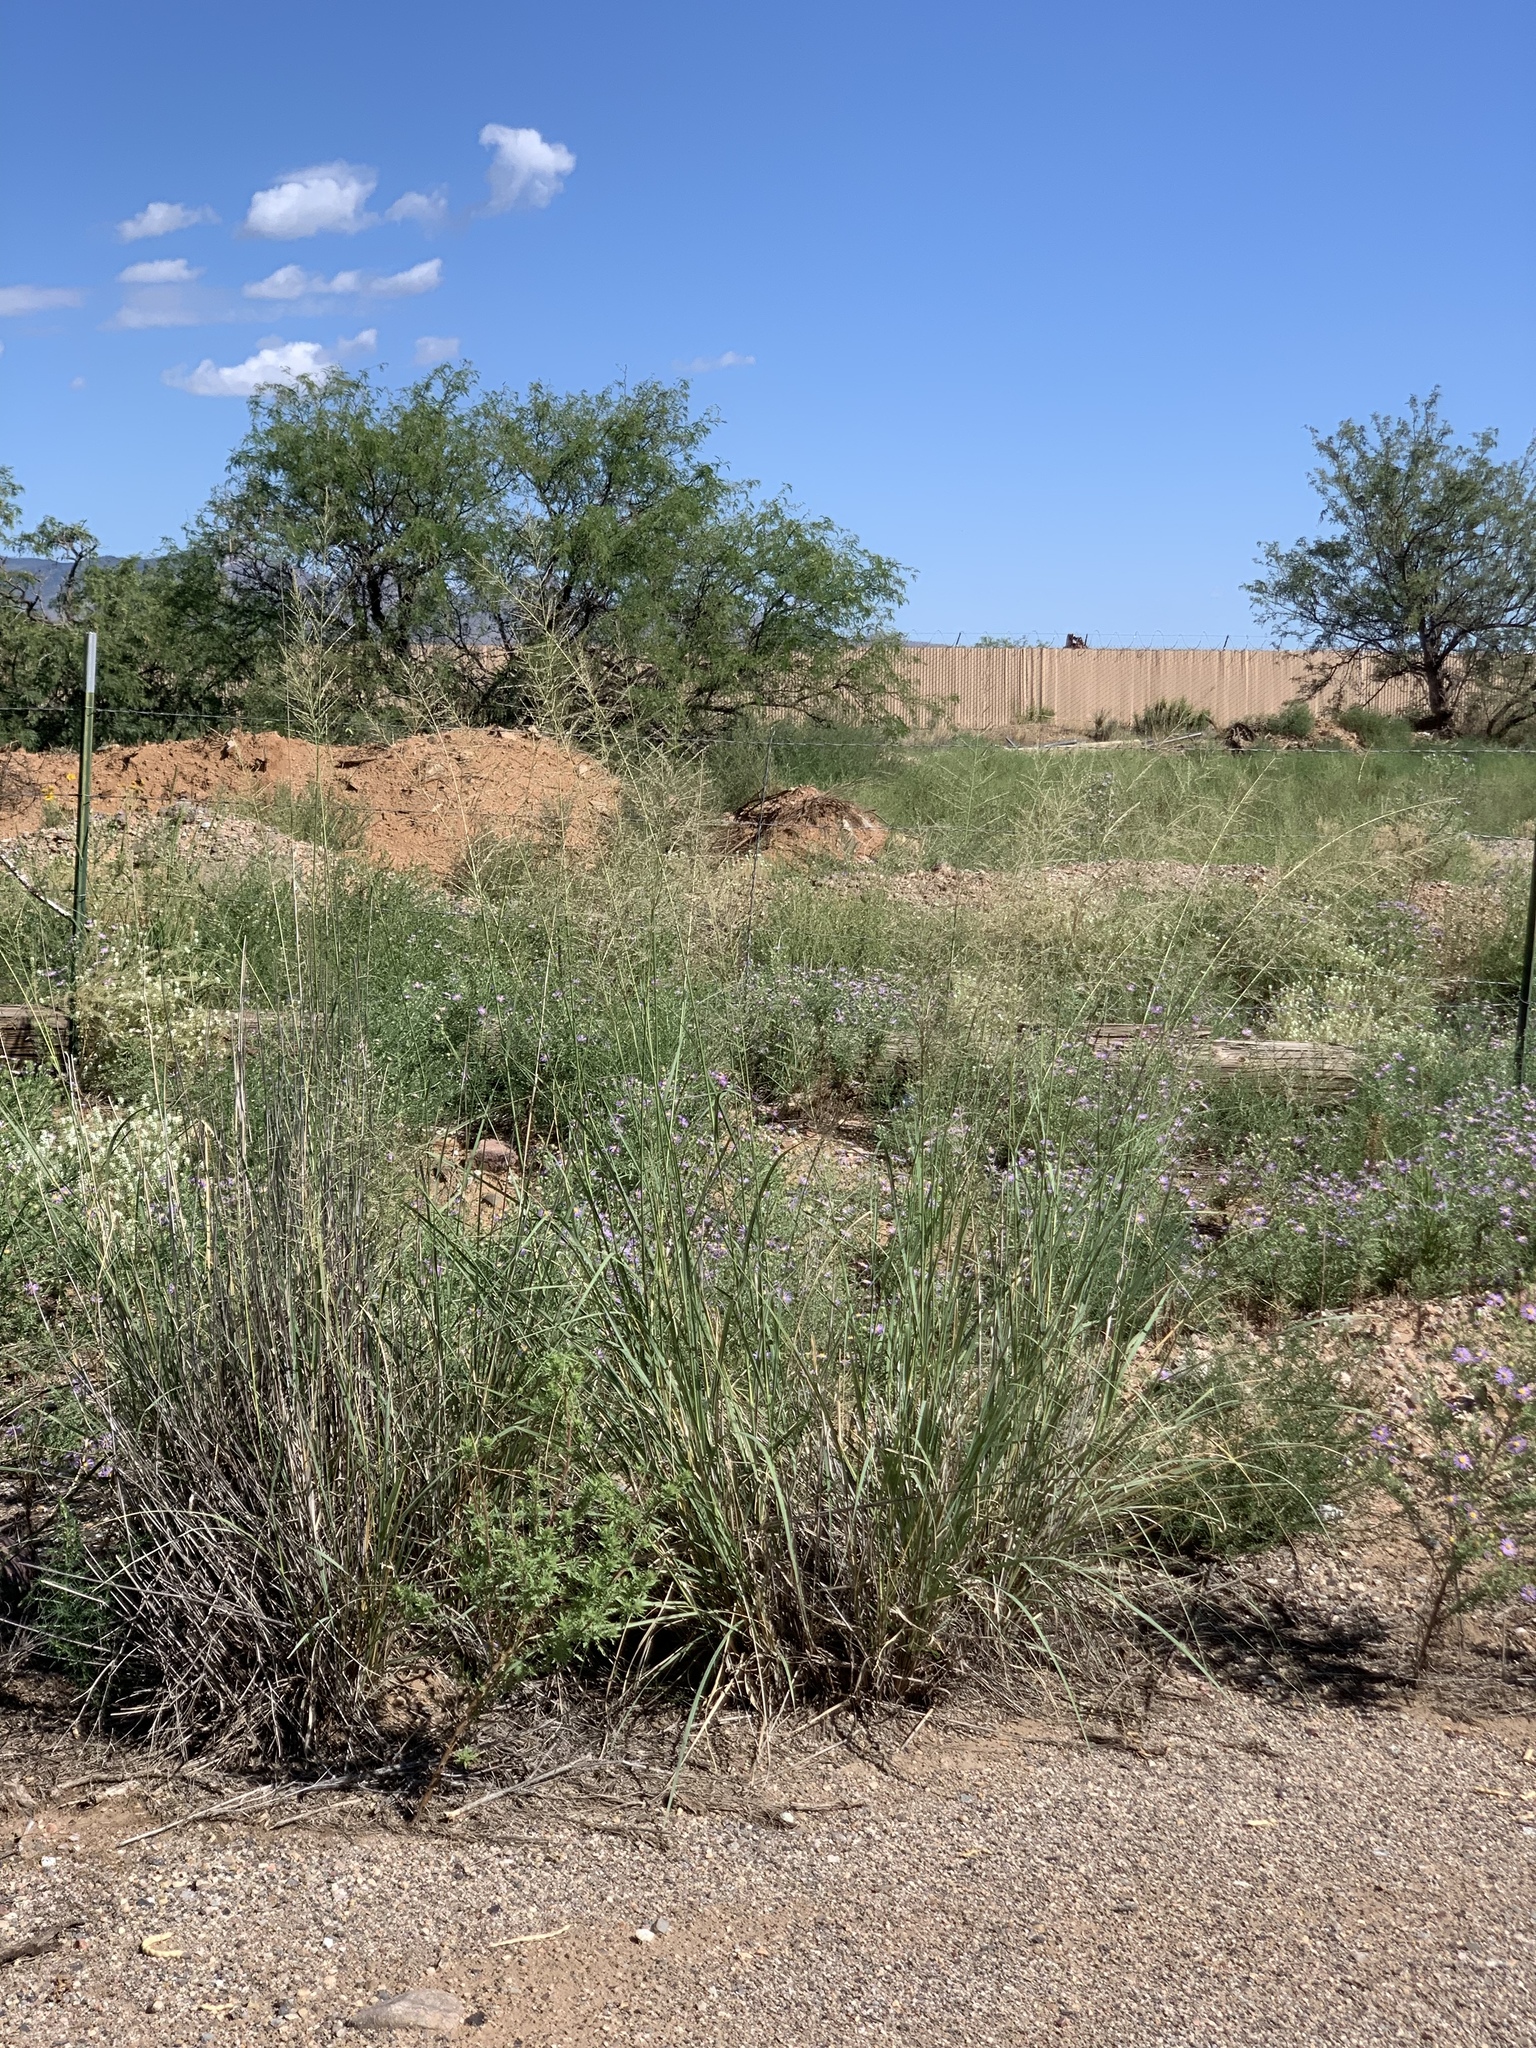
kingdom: Plantae
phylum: Tracheophyta
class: Liliopsida
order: Poales
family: Poaceae
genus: Sporobolus
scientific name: Sporobolus wrightii
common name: Big alkali sacaton
